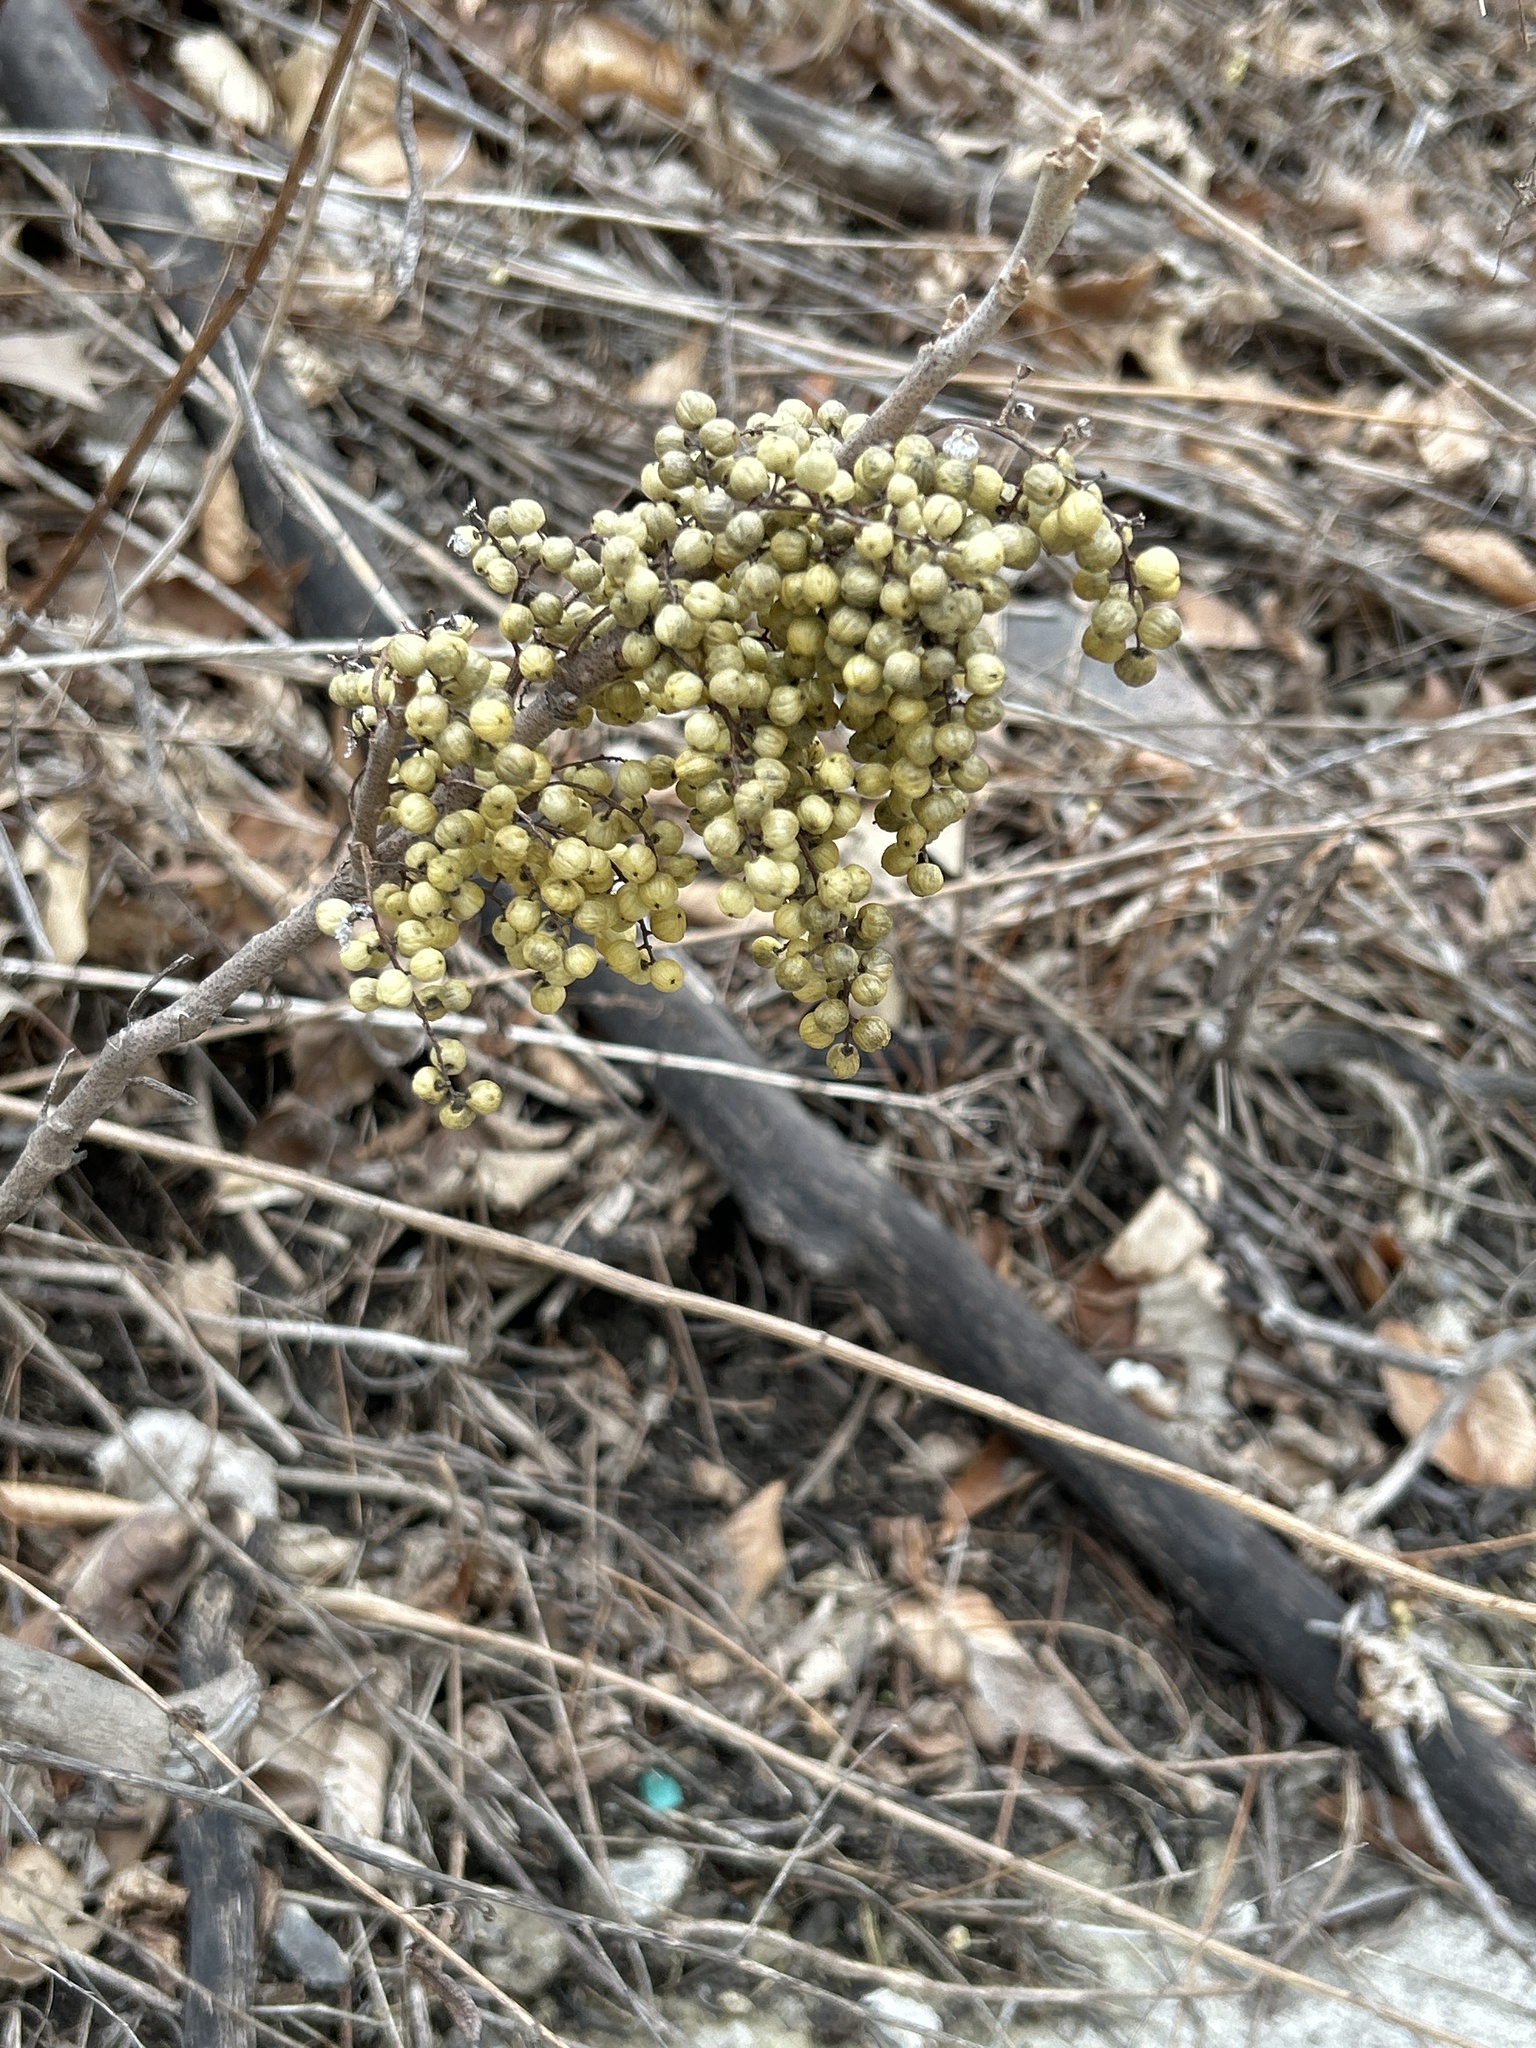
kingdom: Plantae
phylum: Tracheophyta
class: Magnoliopsida
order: Sapindales
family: Anacardiaceae
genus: Toxicodendron
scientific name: Toxicodendron rydbergii
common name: Rydberg's poison-ivy
